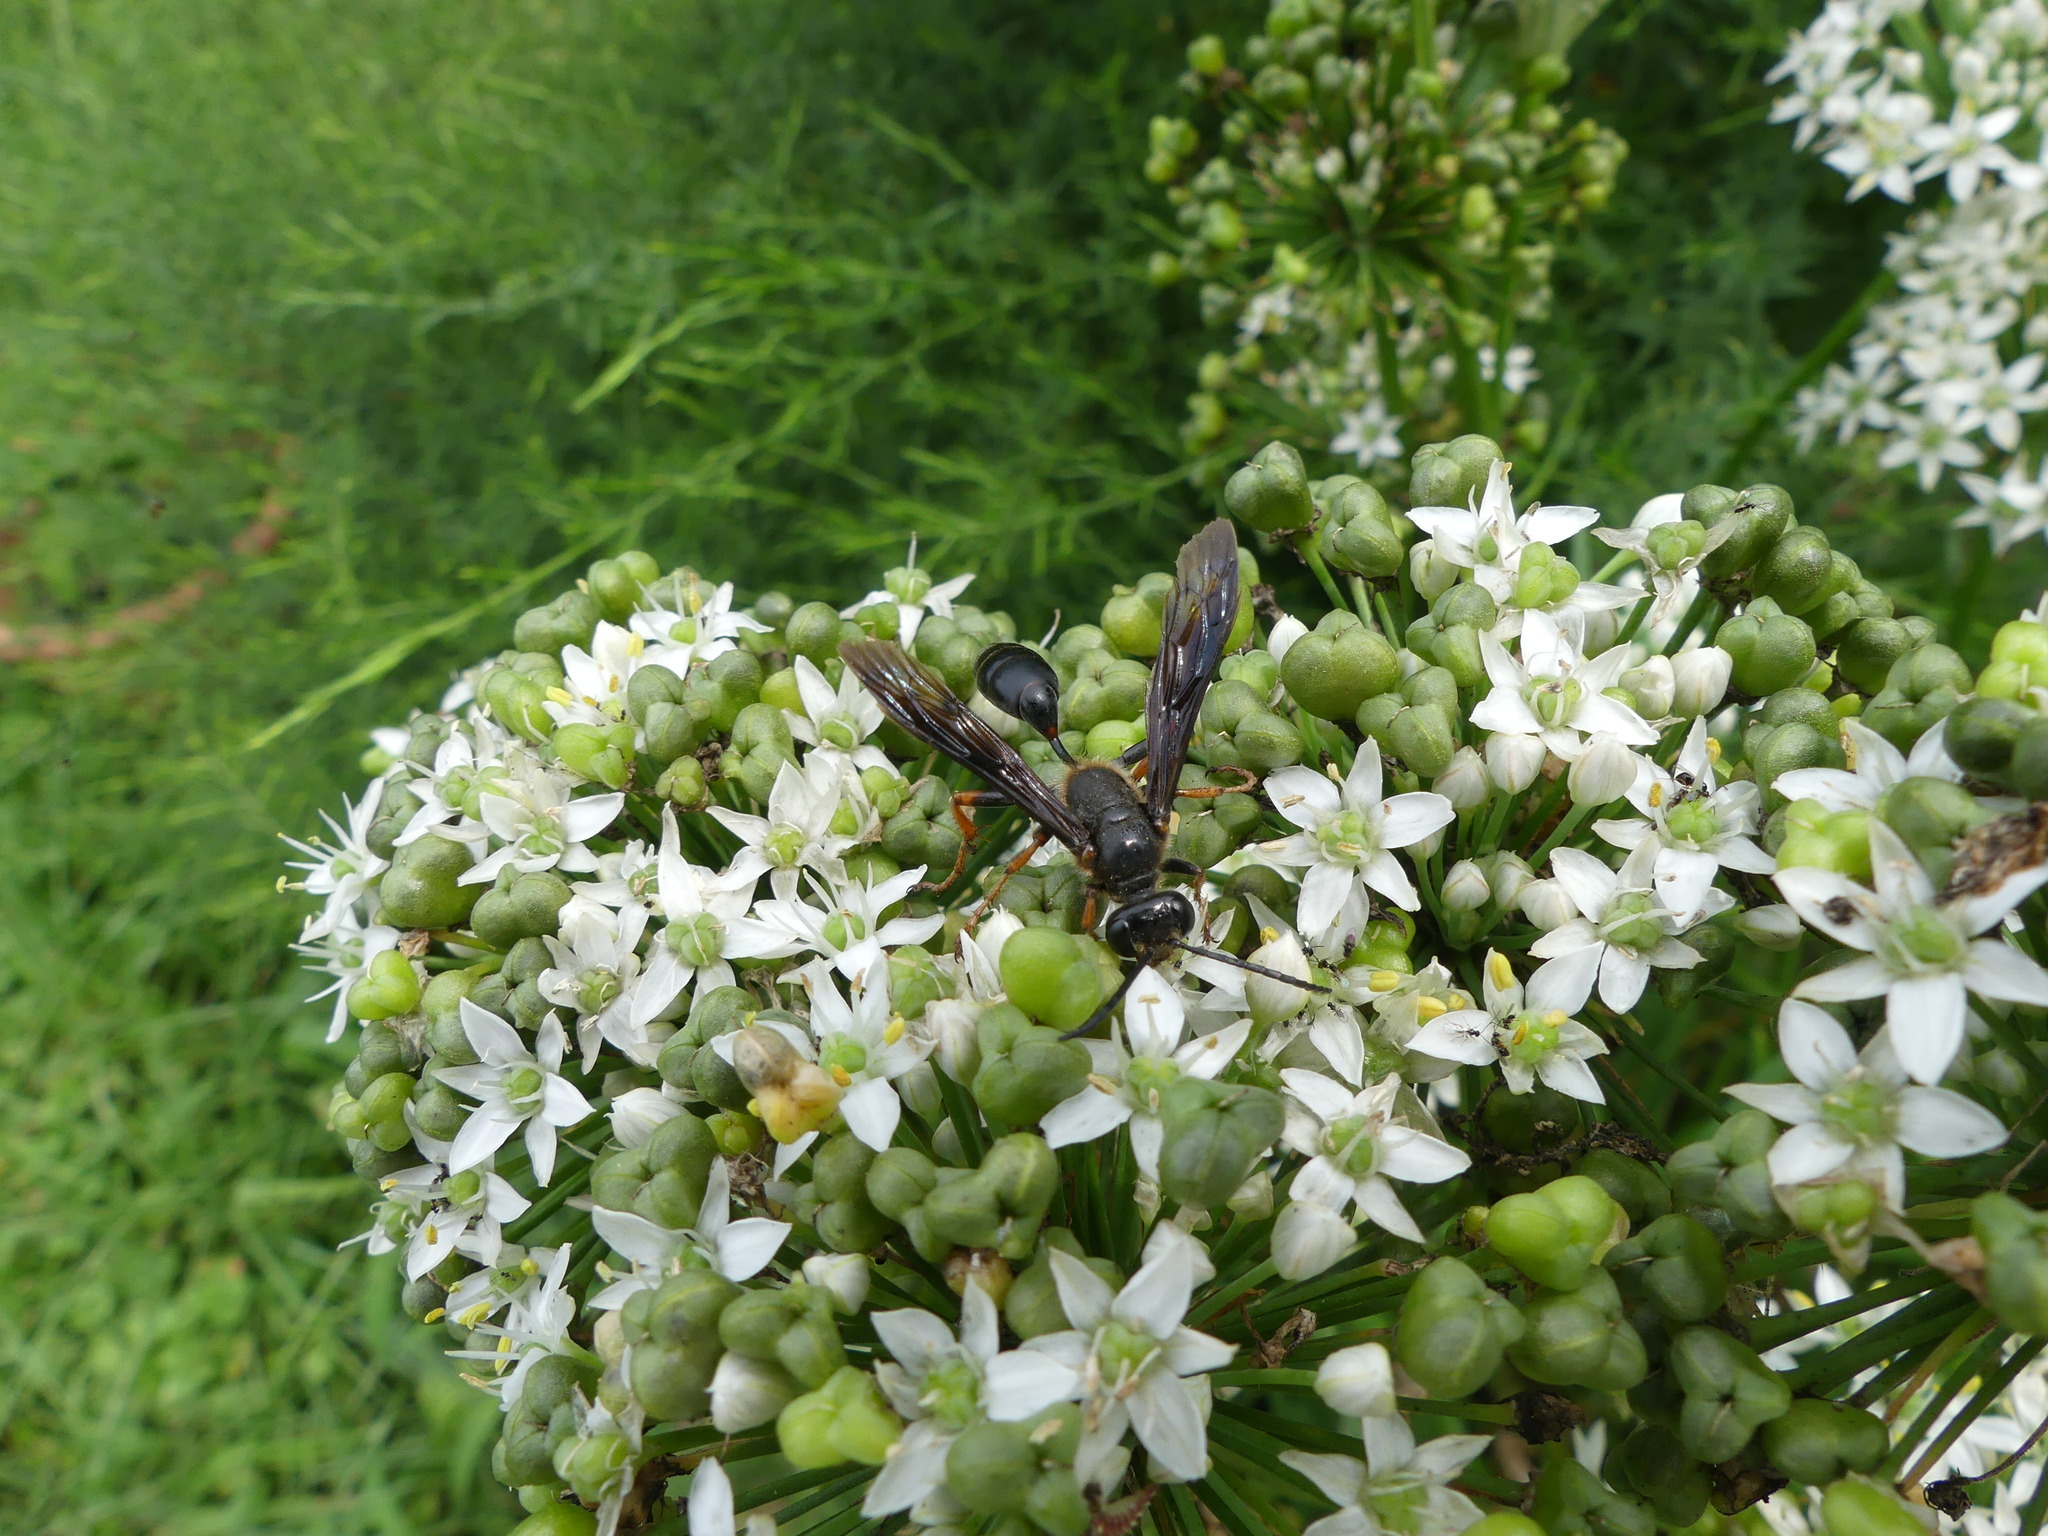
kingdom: Animalia
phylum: Arthropoda
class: Insecta
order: Hymenoptera
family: Sphecidae
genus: Isodontia
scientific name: Isodontia auripes
